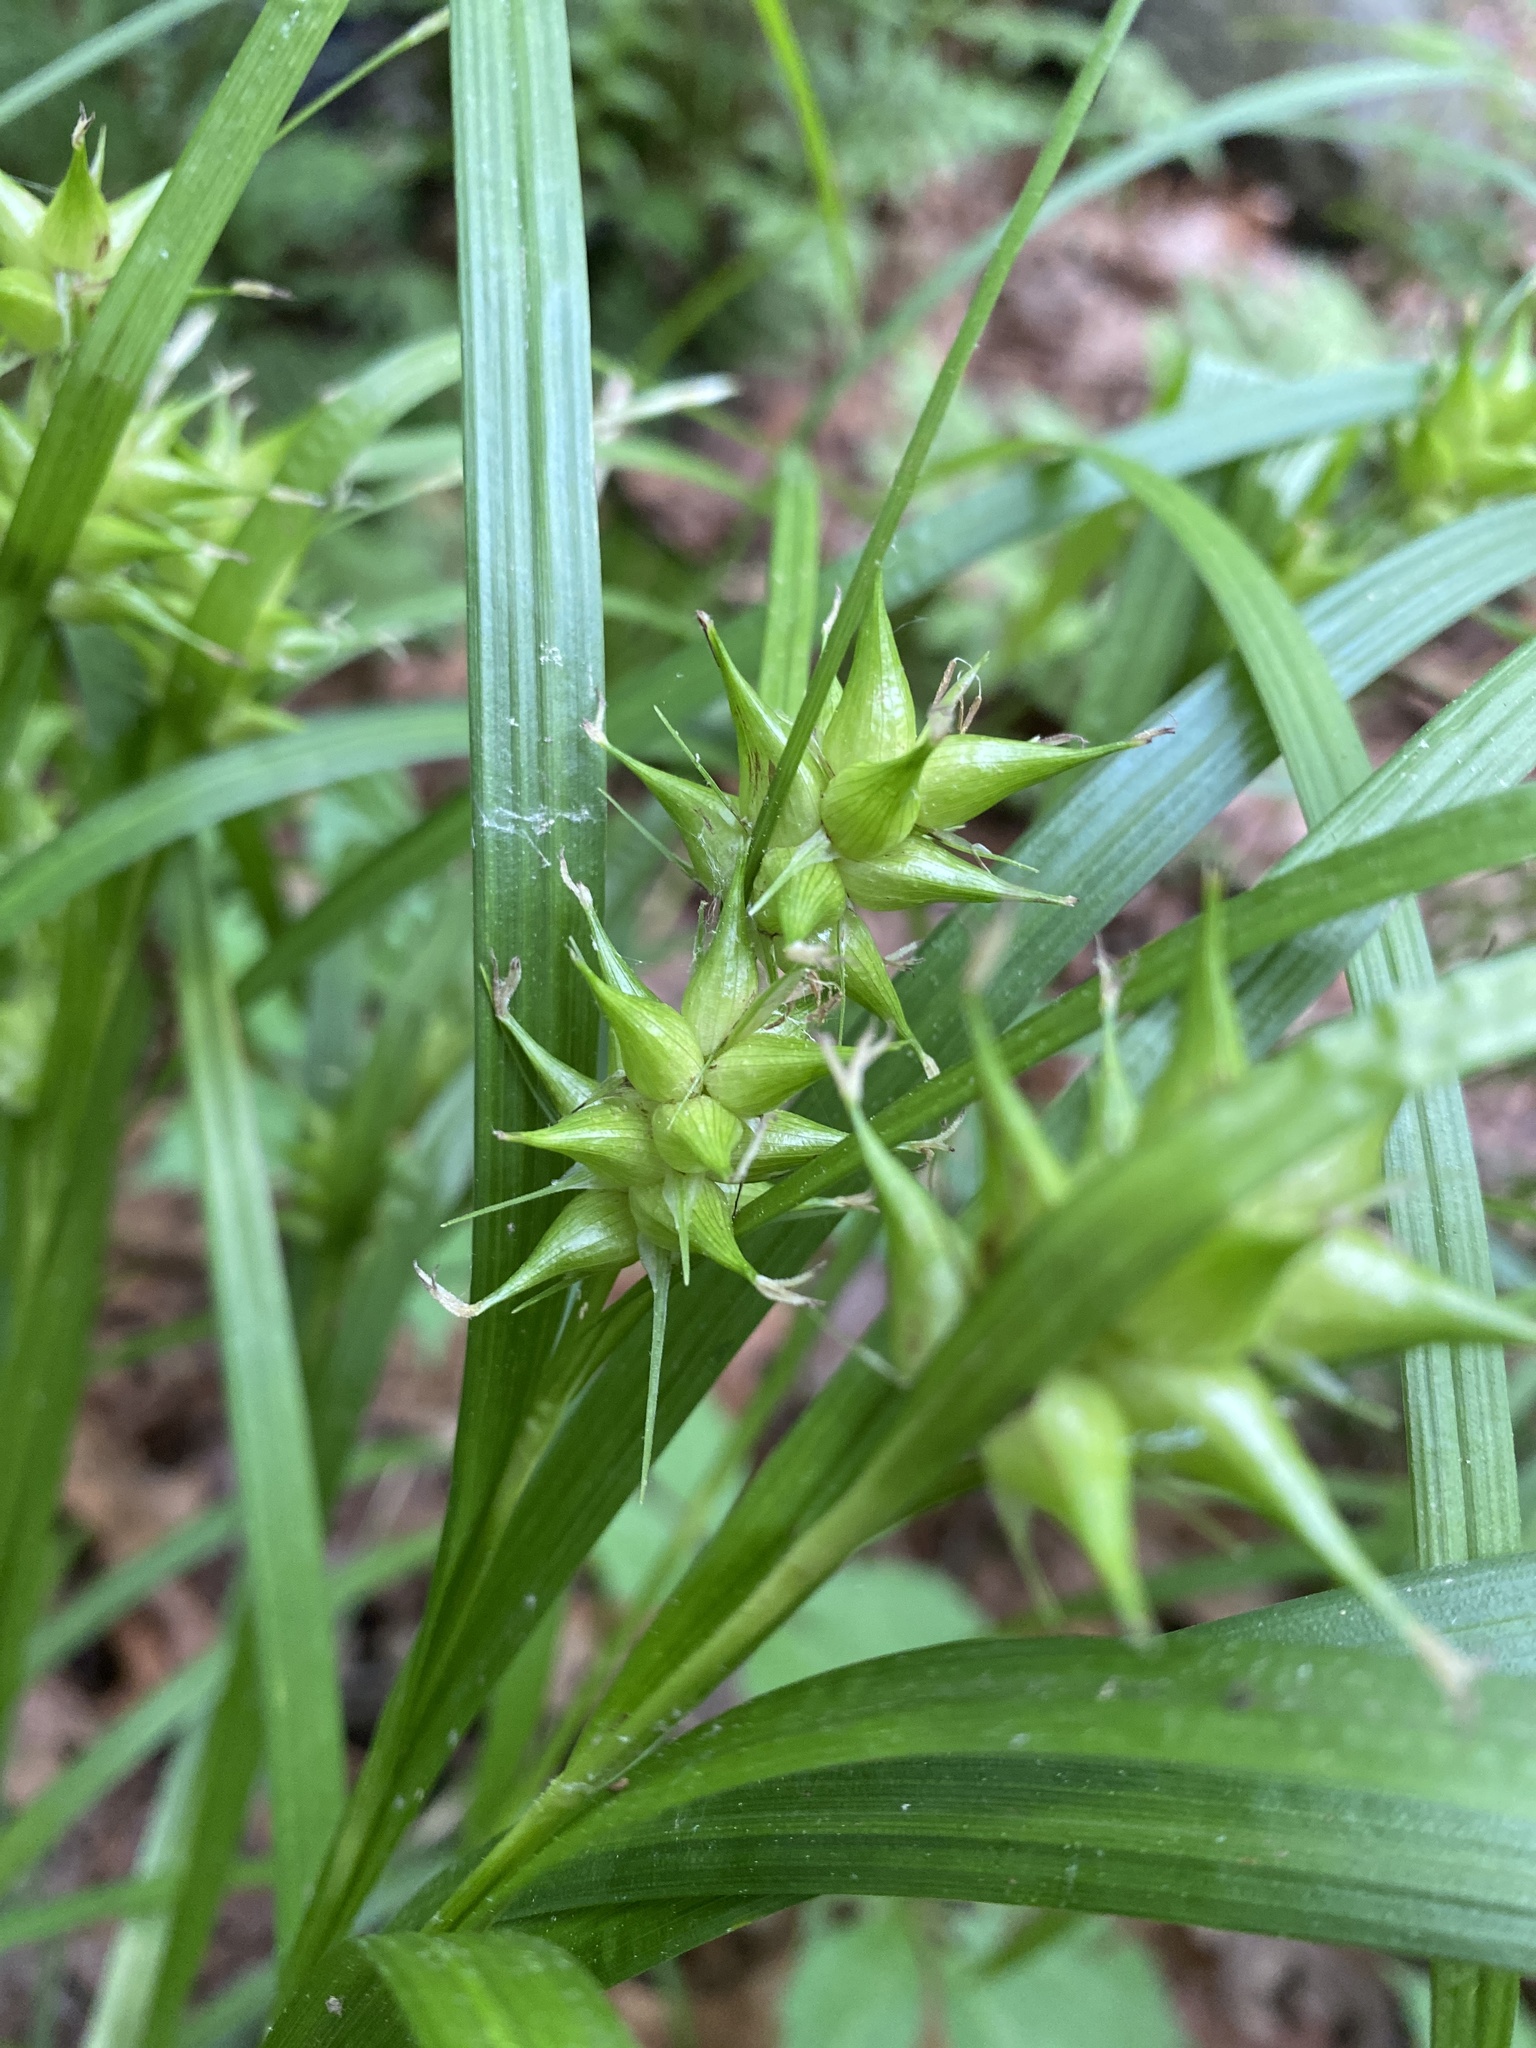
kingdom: Plantae
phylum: Tracheophyta
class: Liliopsida
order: Poales
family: Cyperaceae
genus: Carex
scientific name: Carex intumescens
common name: Greater bladder sedge
